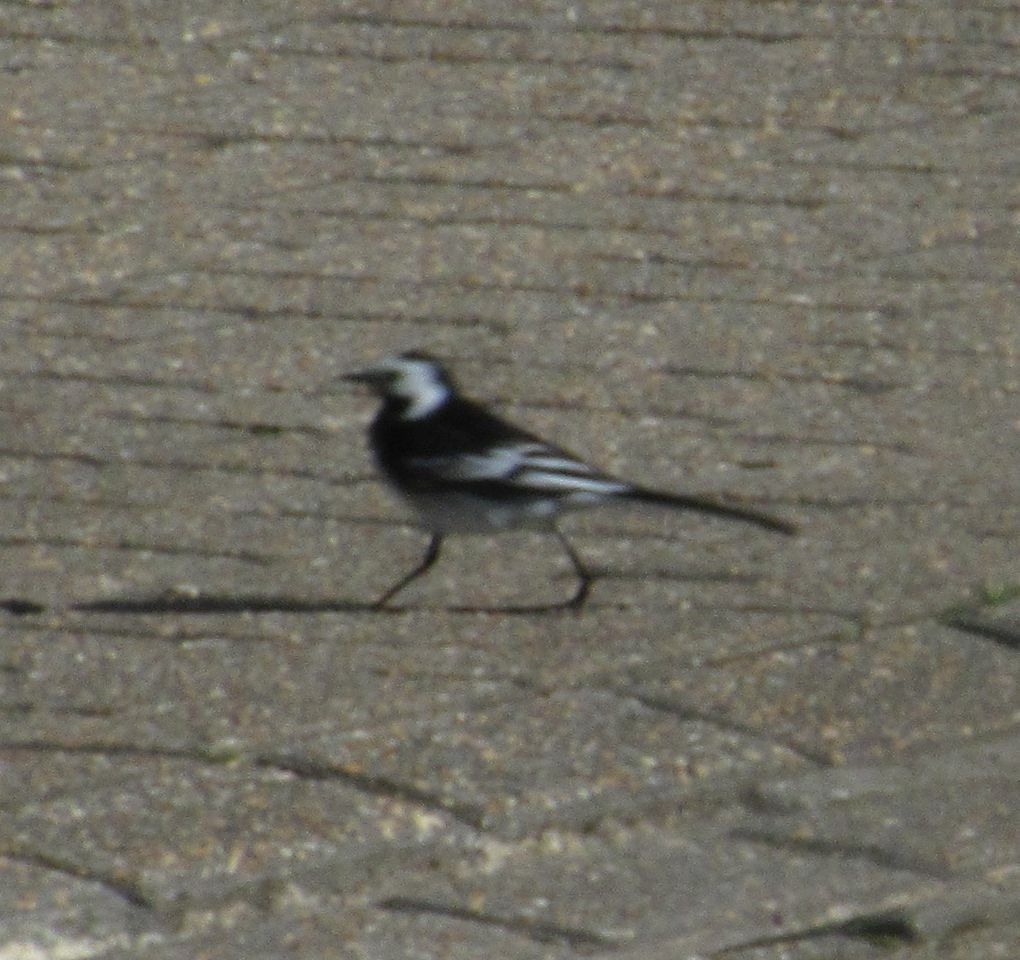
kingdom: Animalia
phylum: Chordata
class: Aves
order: Passeriformes
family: Motacillidae
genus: Motacilla
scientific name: Motacilla alba
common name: White wagtail
